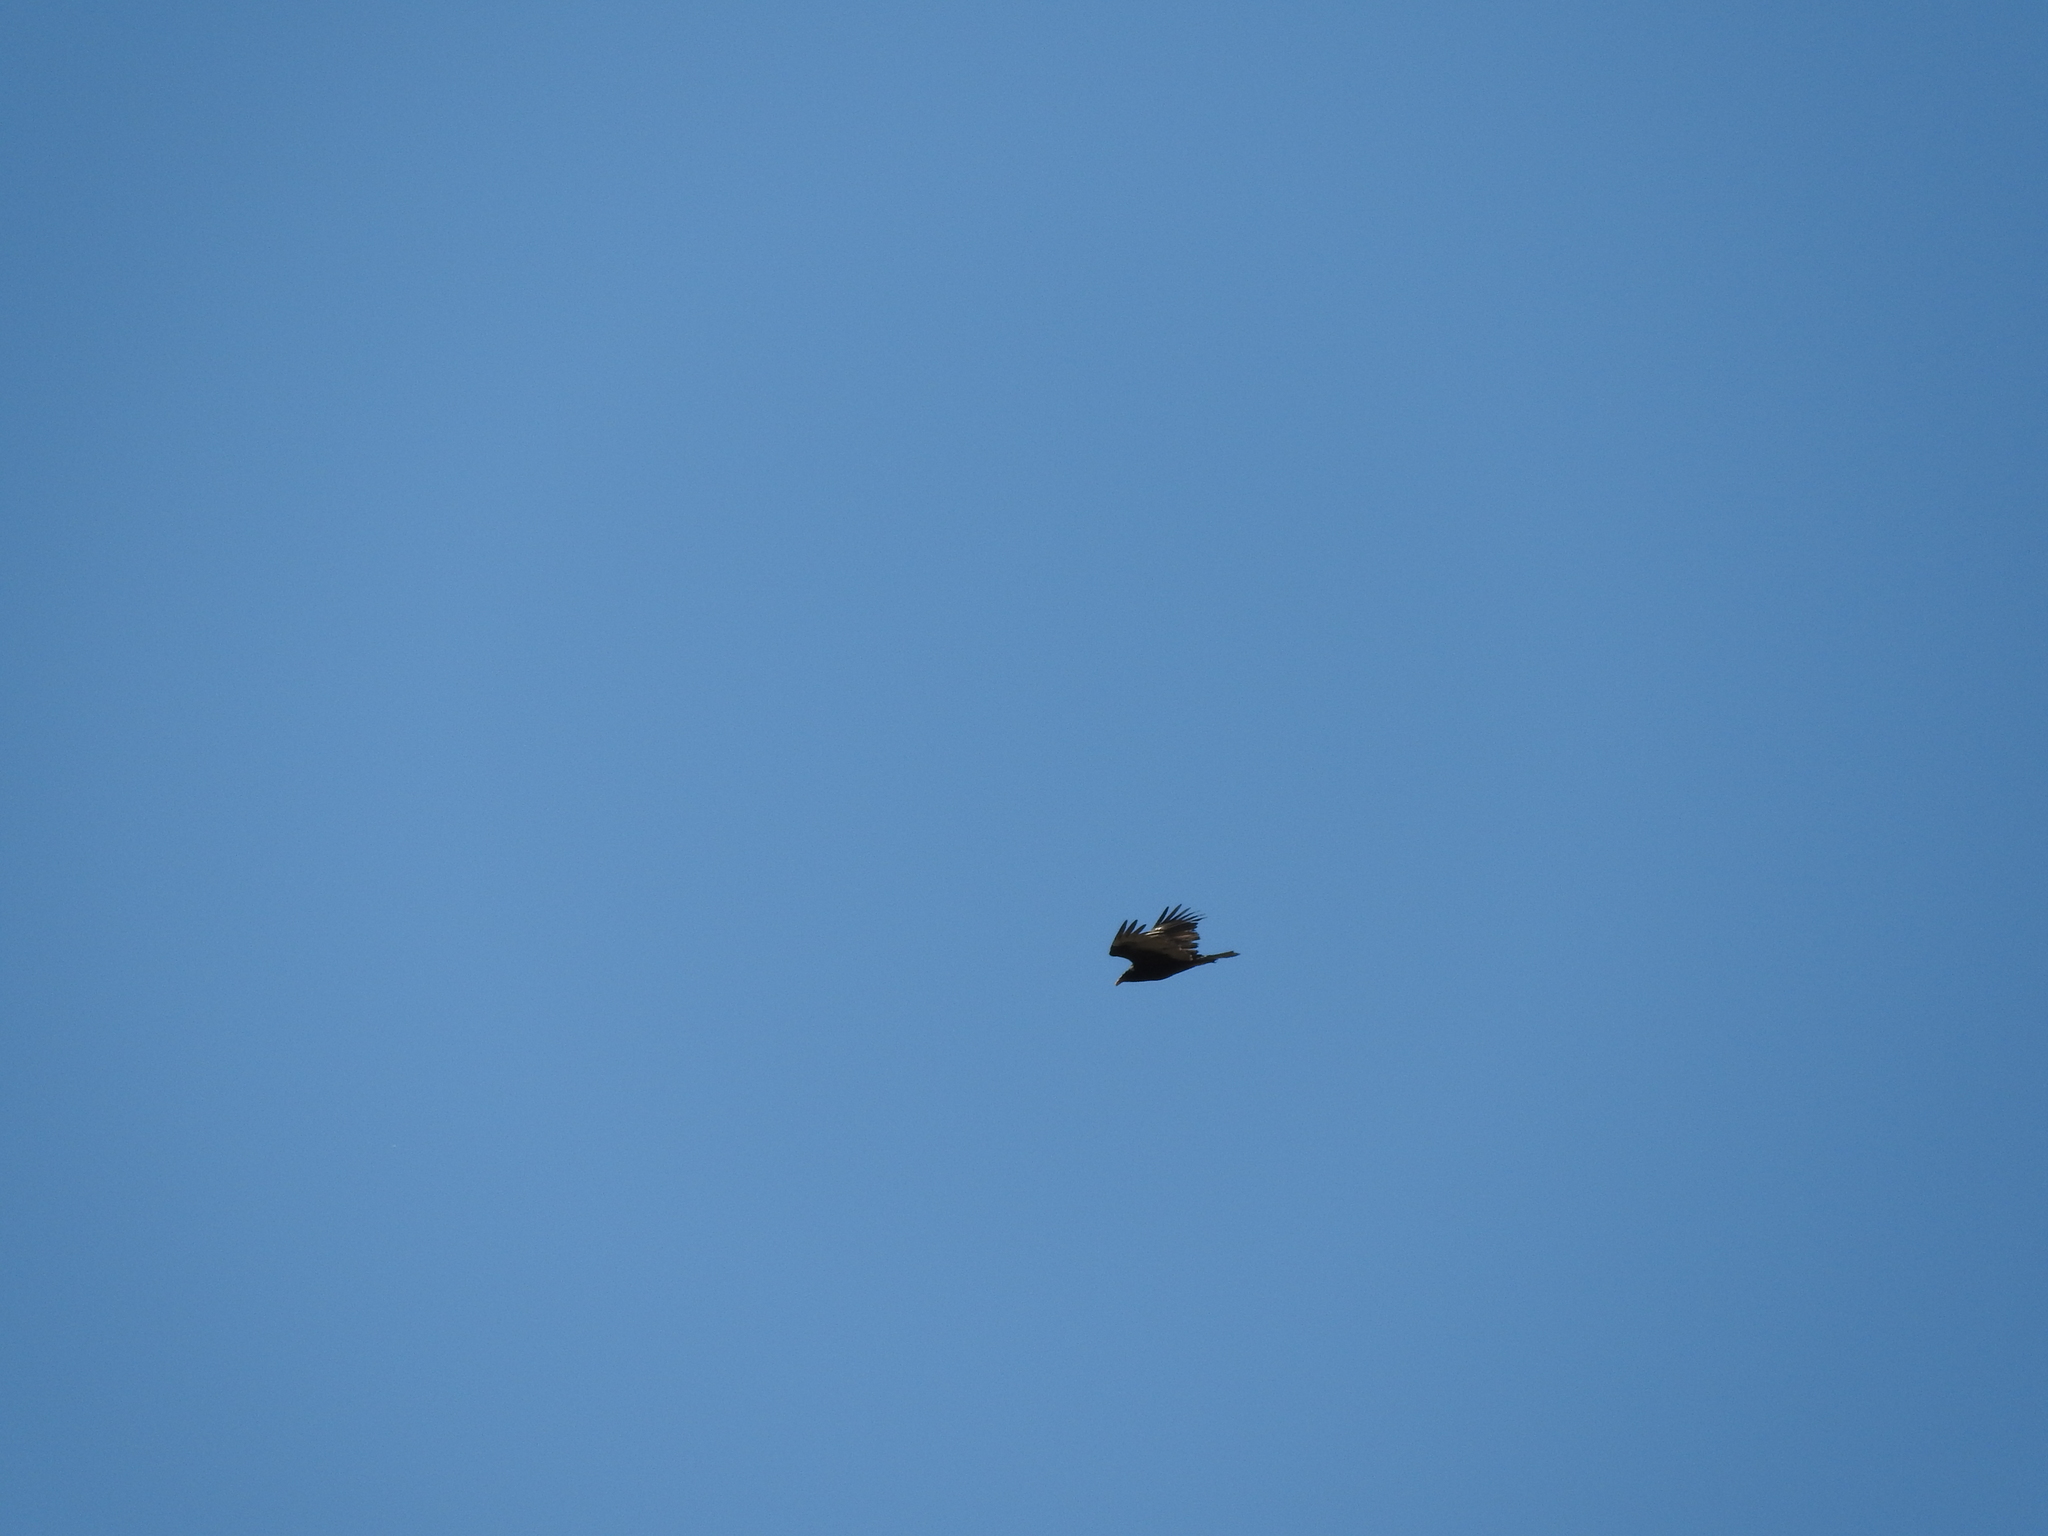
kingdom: Animalia
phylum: Chordata
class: Aves
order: Accipitriformes
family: Cathartidae
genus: Cathartes
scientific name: Cathartes aura
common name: Turkey vulture
